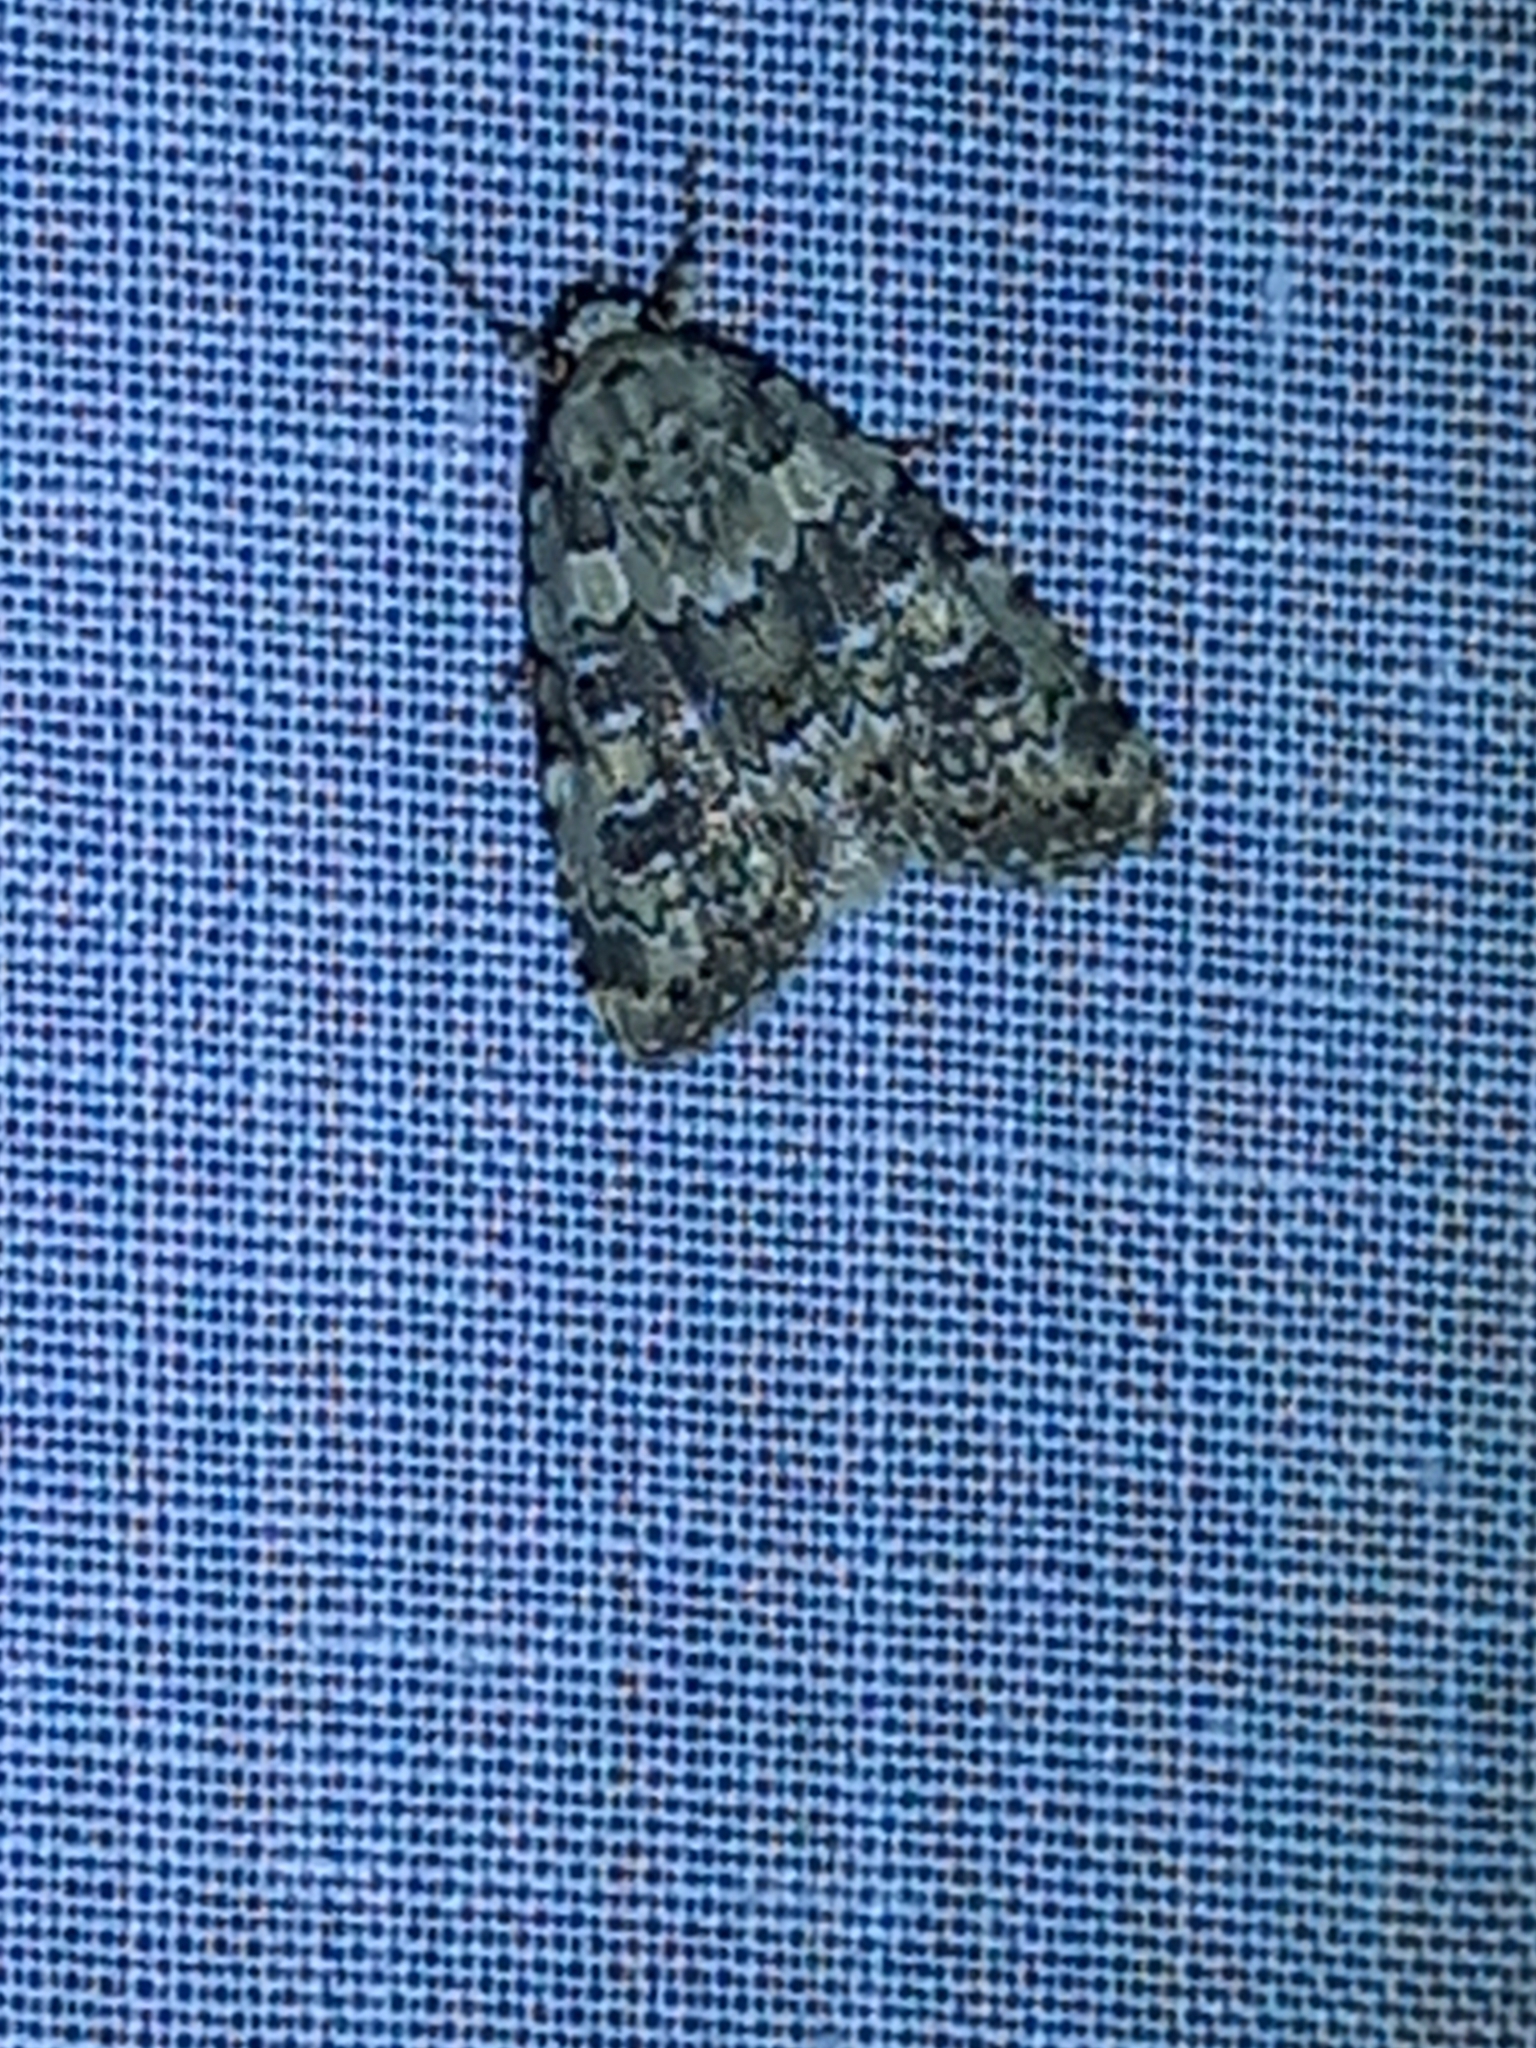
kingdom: Animalia
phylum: Arthropoda
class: Insecta
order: Lepidoptera
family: Noctuidae
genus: Bryophila
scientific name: Bryophila domestica
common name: Marbled beauty
